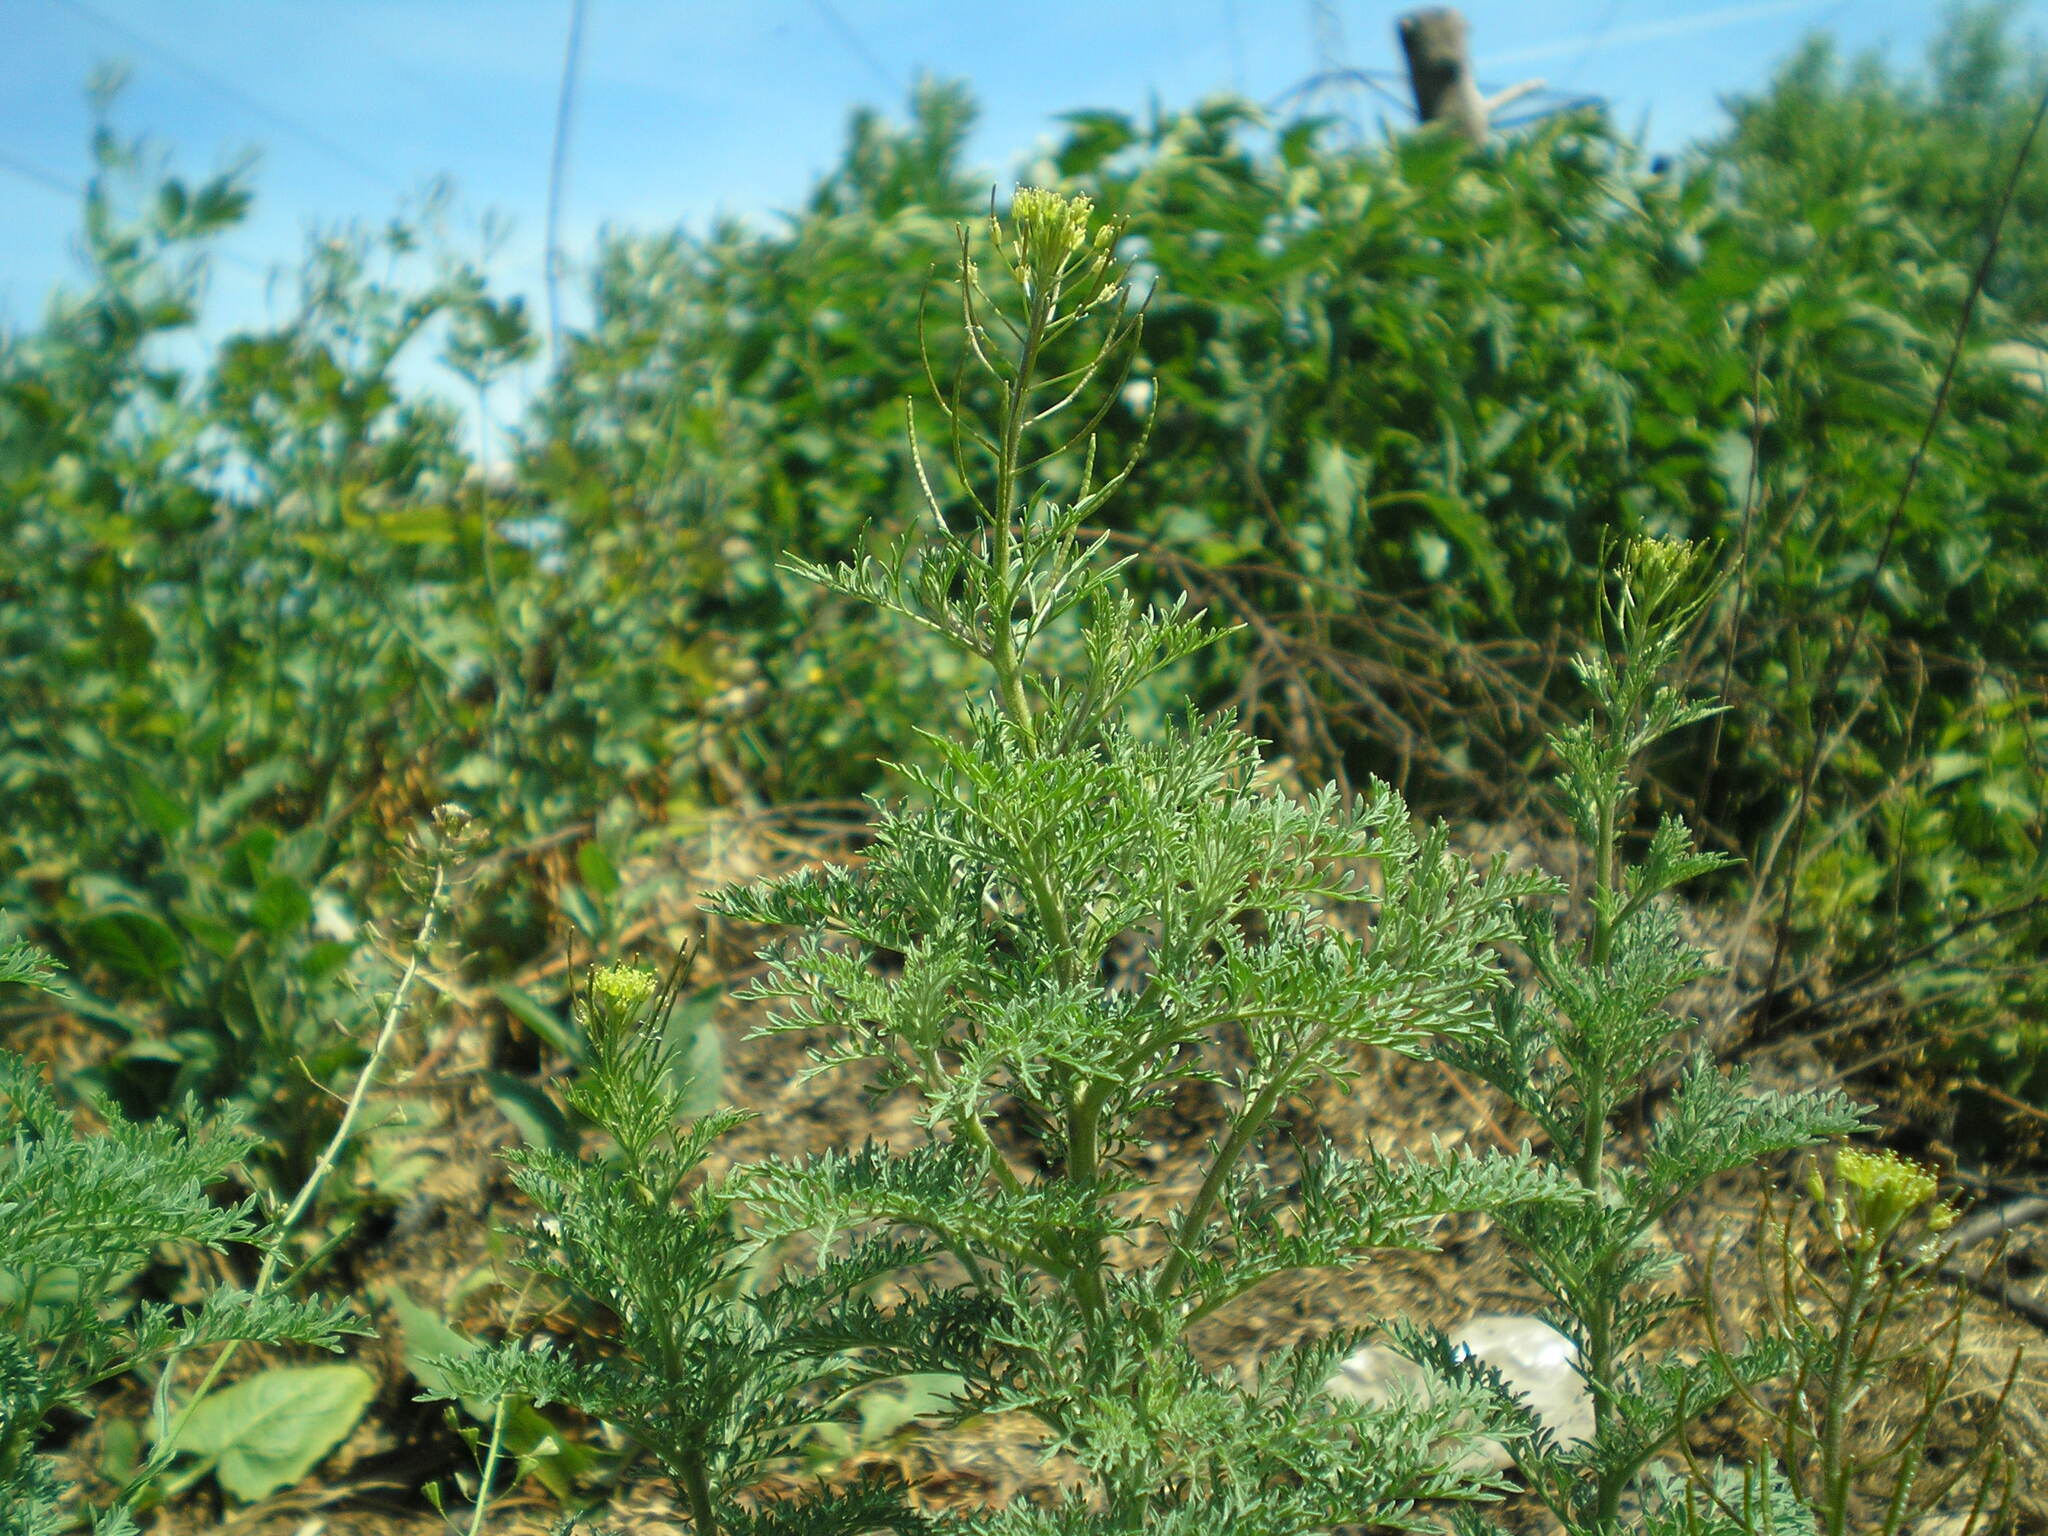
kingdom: Plantae
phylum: Tracheophyta
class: Magnoliopsida
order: Brassicales
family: Brassicaceae
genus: Descurainia
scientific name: Descurainia sophia
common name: Flixweed
